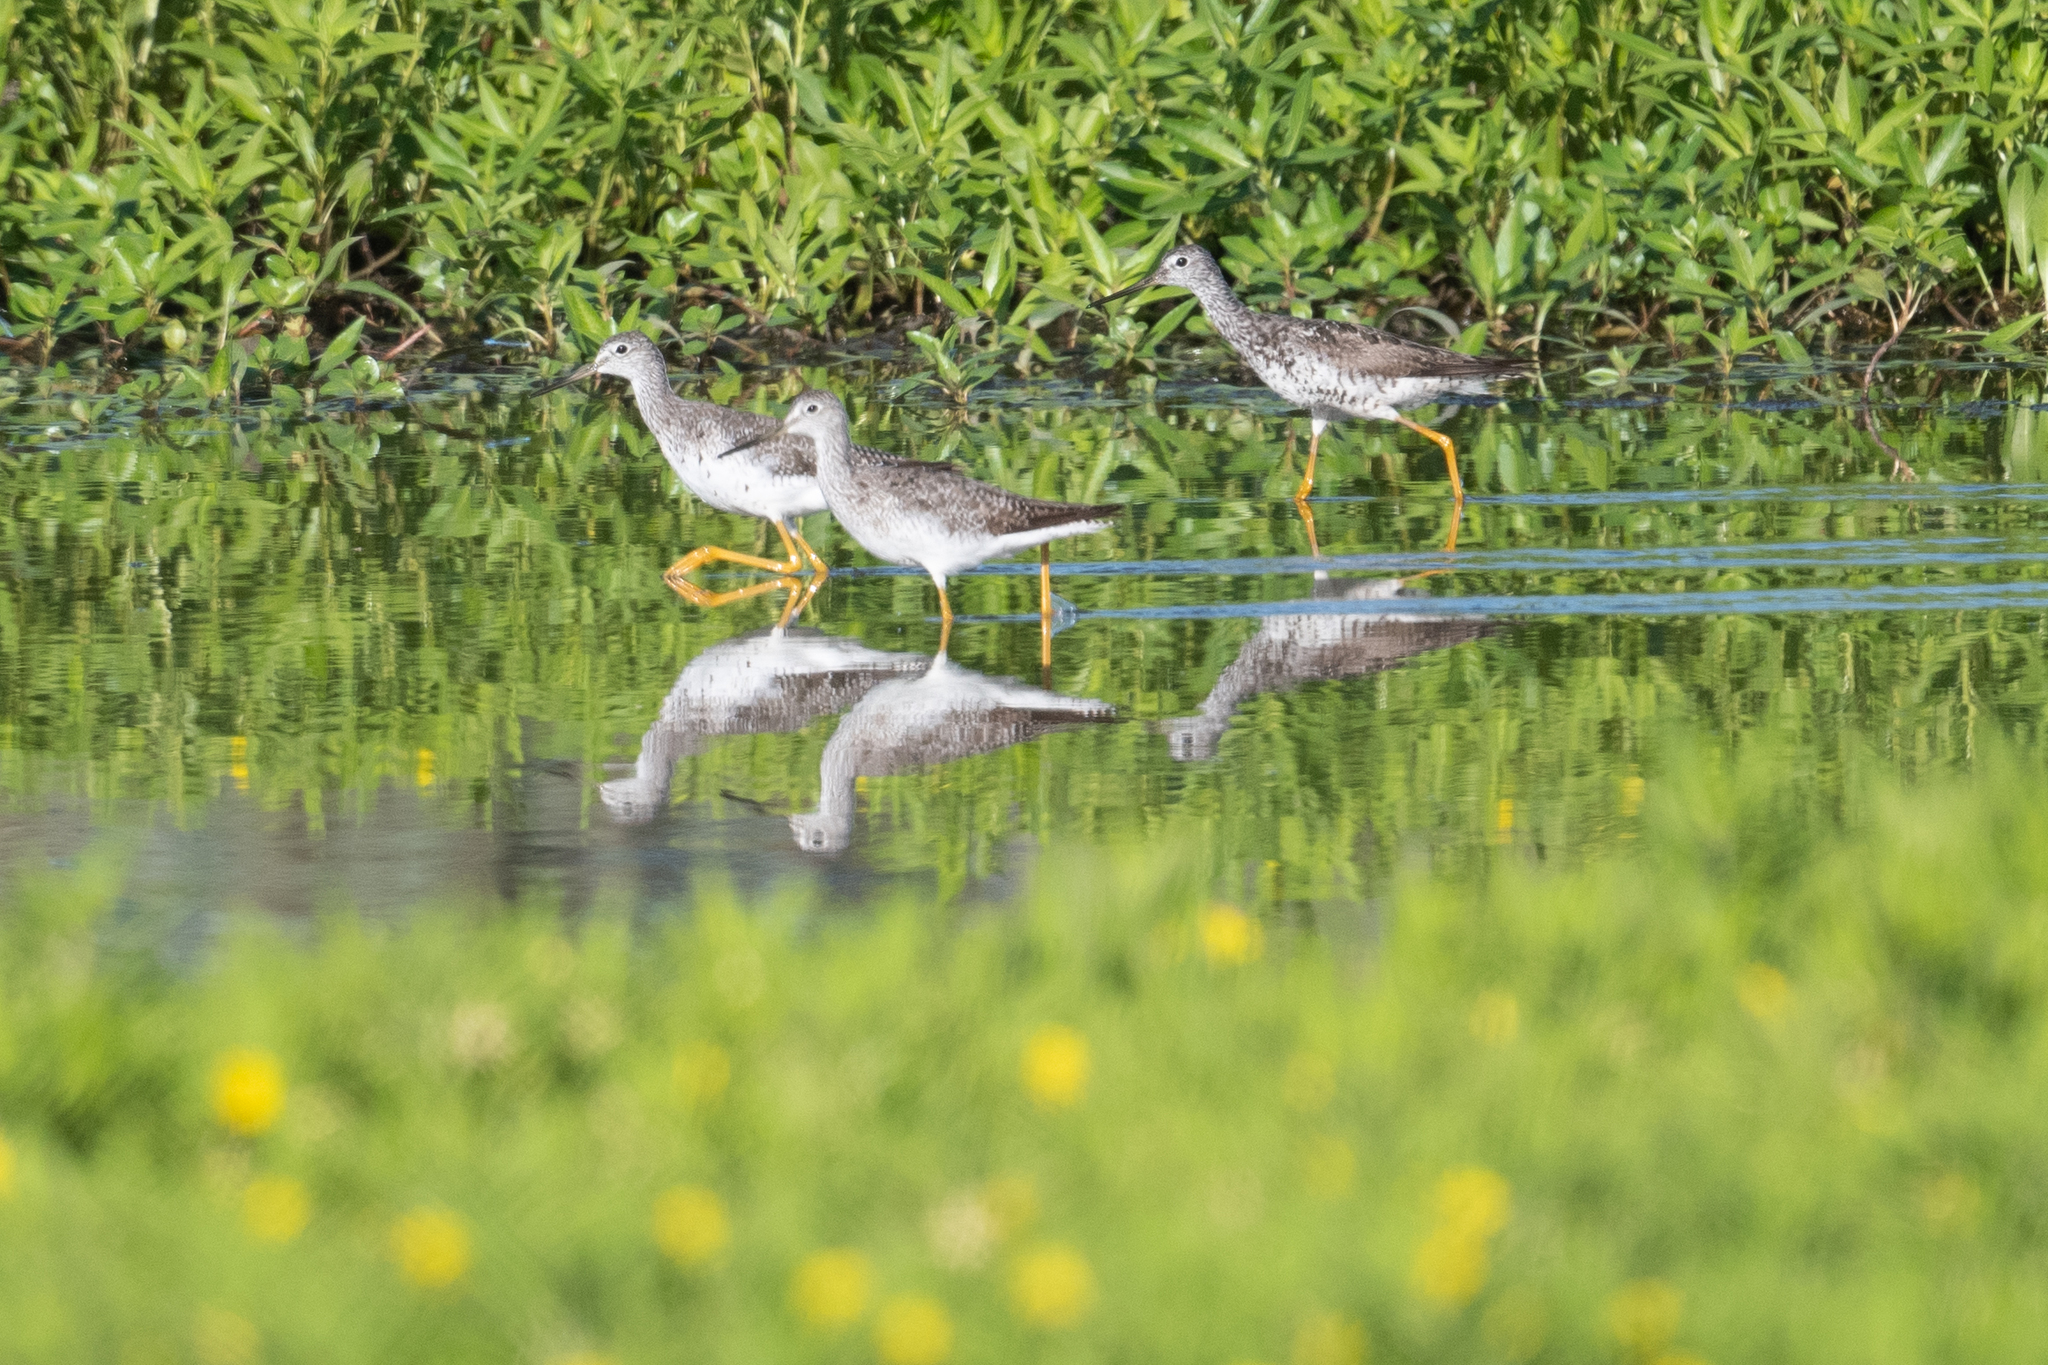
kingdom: Animalia
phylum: Chordata
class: Aves
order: Charadriiformes
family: Scolopacidae
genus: Tringa
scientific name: Tringa melanoleuca
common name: Greater yellowlegs
